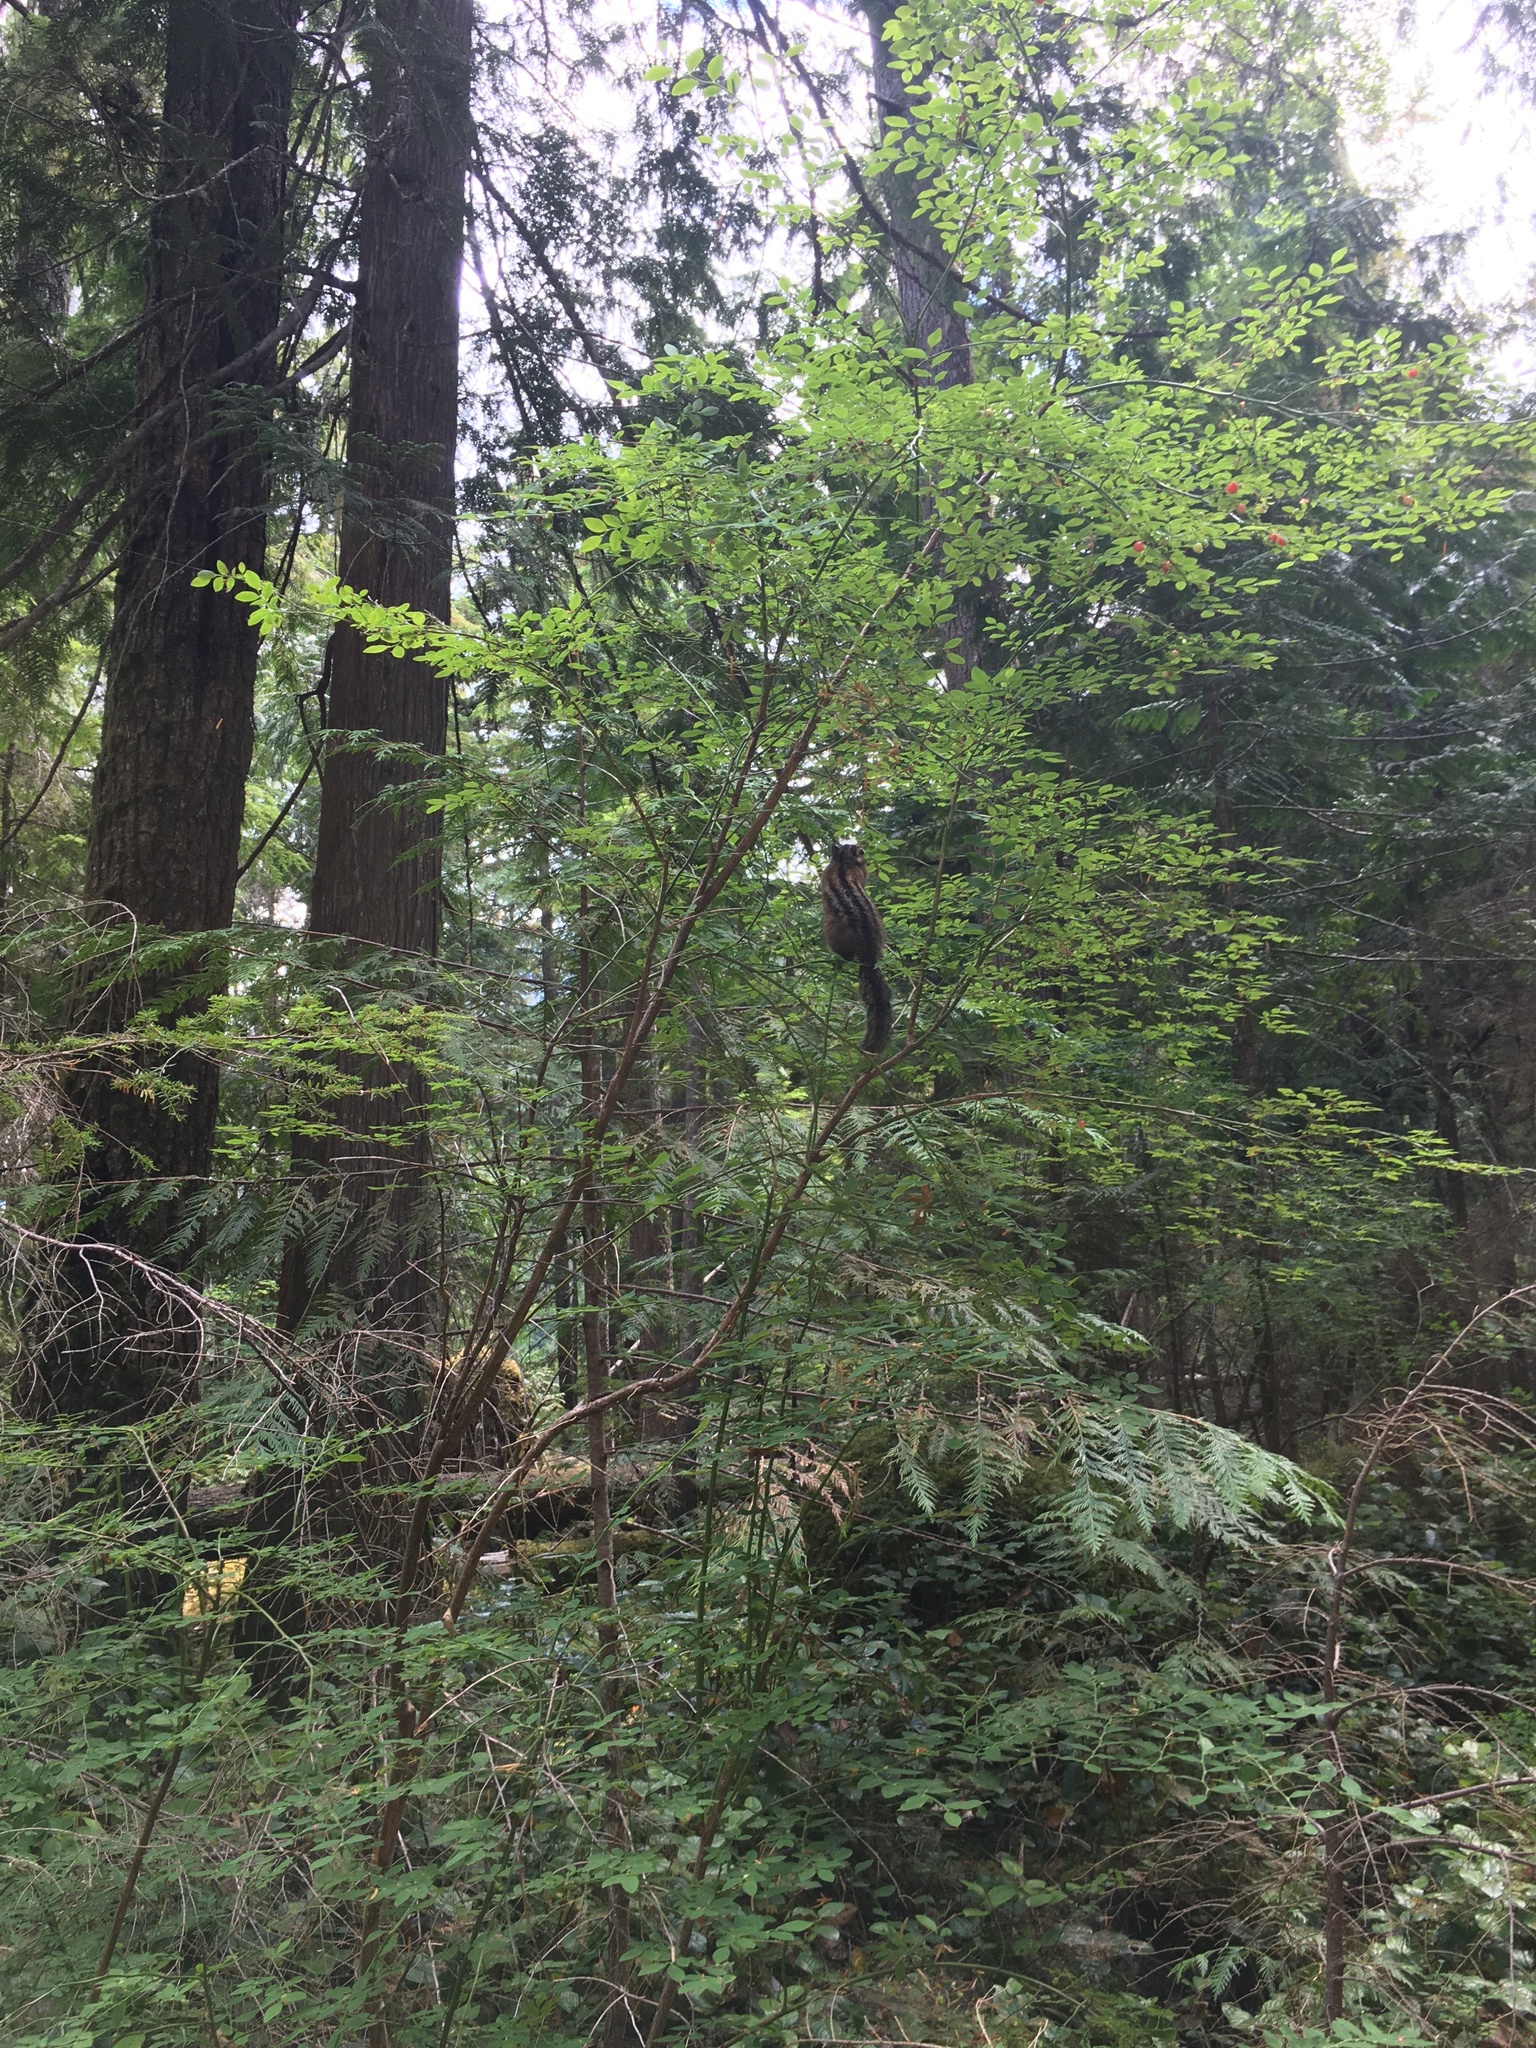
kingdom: Animalia
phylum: Chordata
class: Mammalia
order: Rodentia
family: Sciuridae
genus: Tamias
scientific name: Tamias townsendii
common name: Townsend's chipmunk
